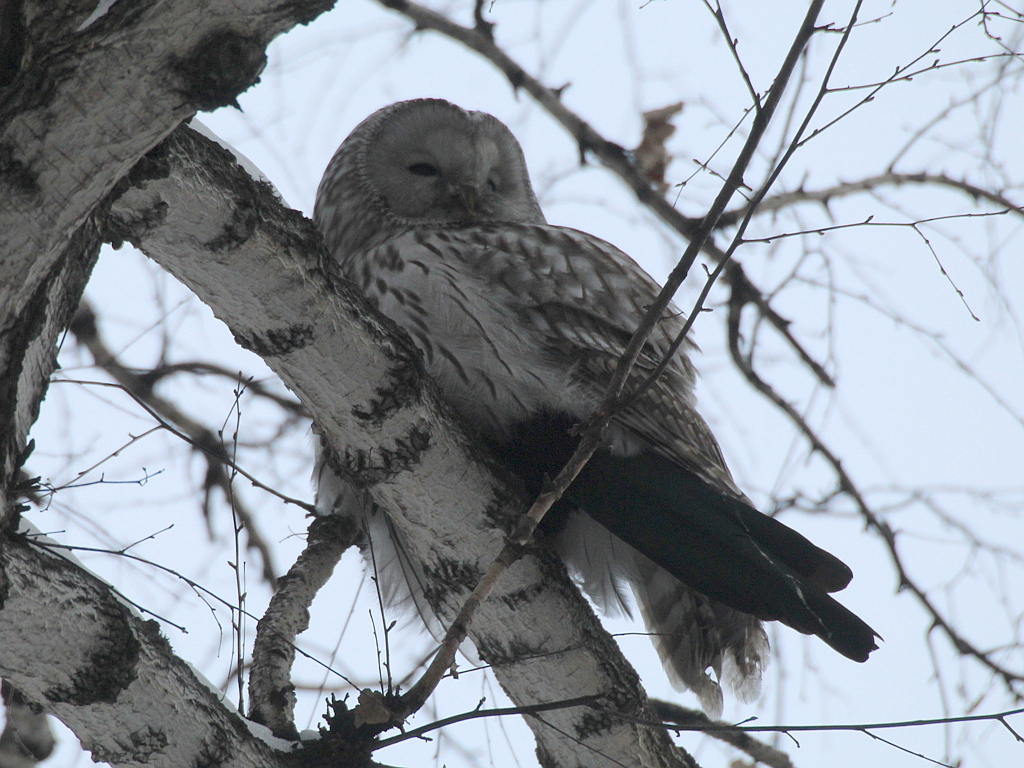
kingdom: Animalia
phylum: Chordata
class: Aves
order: Strigiformes
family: Strigidae
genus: Strix
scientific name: Strix uralensis
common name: Ural owl
